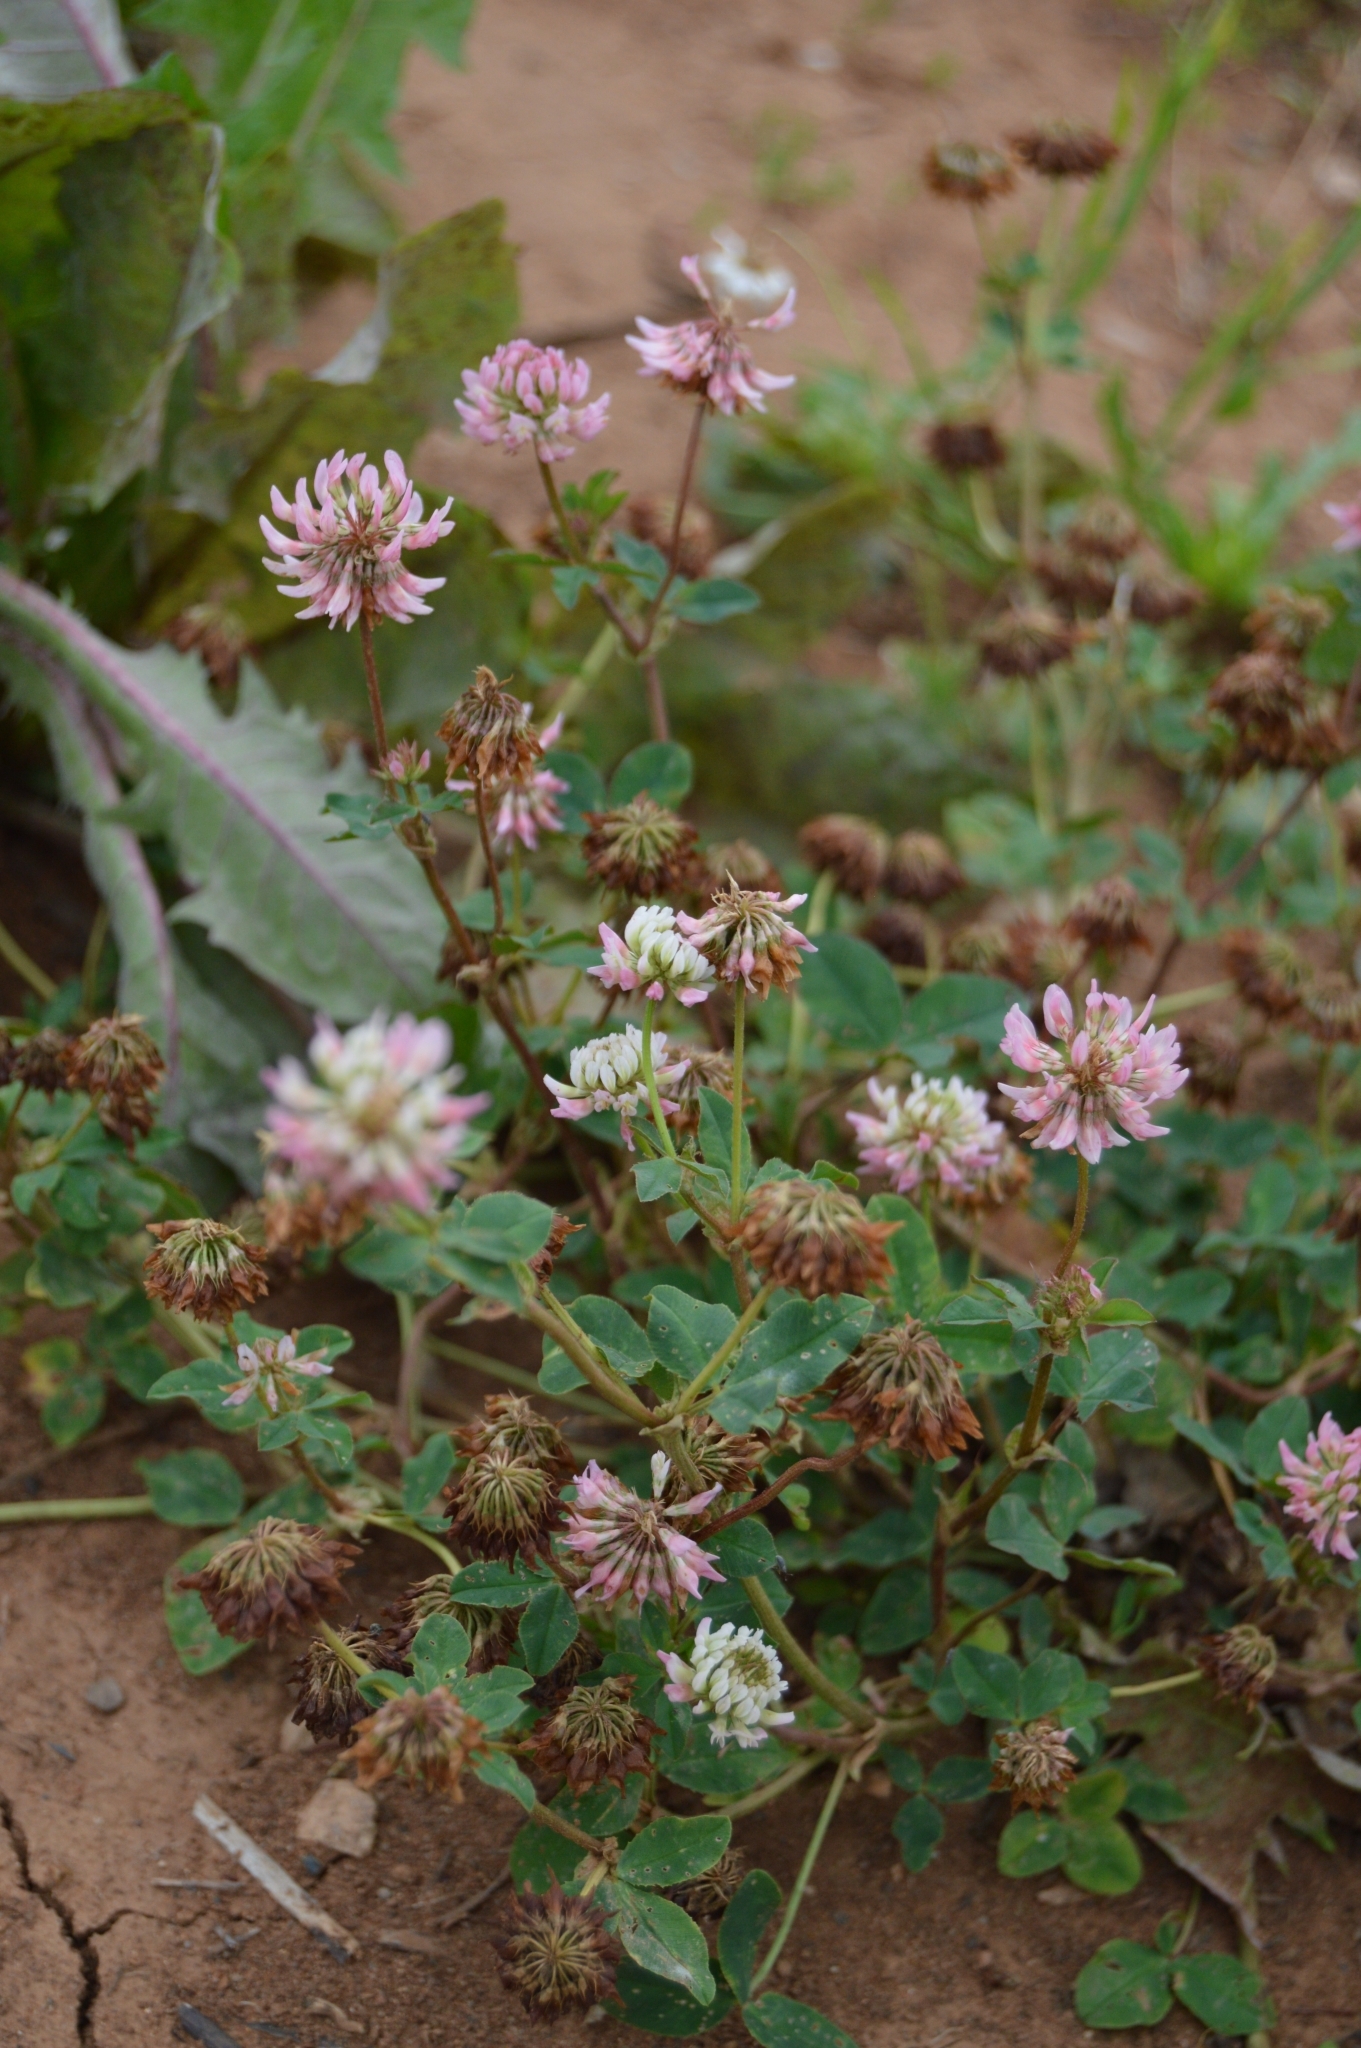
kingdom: Plantae
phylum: Tracheophyta
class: Magnoliopsida
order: Fabales
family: Fabaceae
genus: Trifolium
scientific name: Trifolium hybridum
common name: Alsike clover
